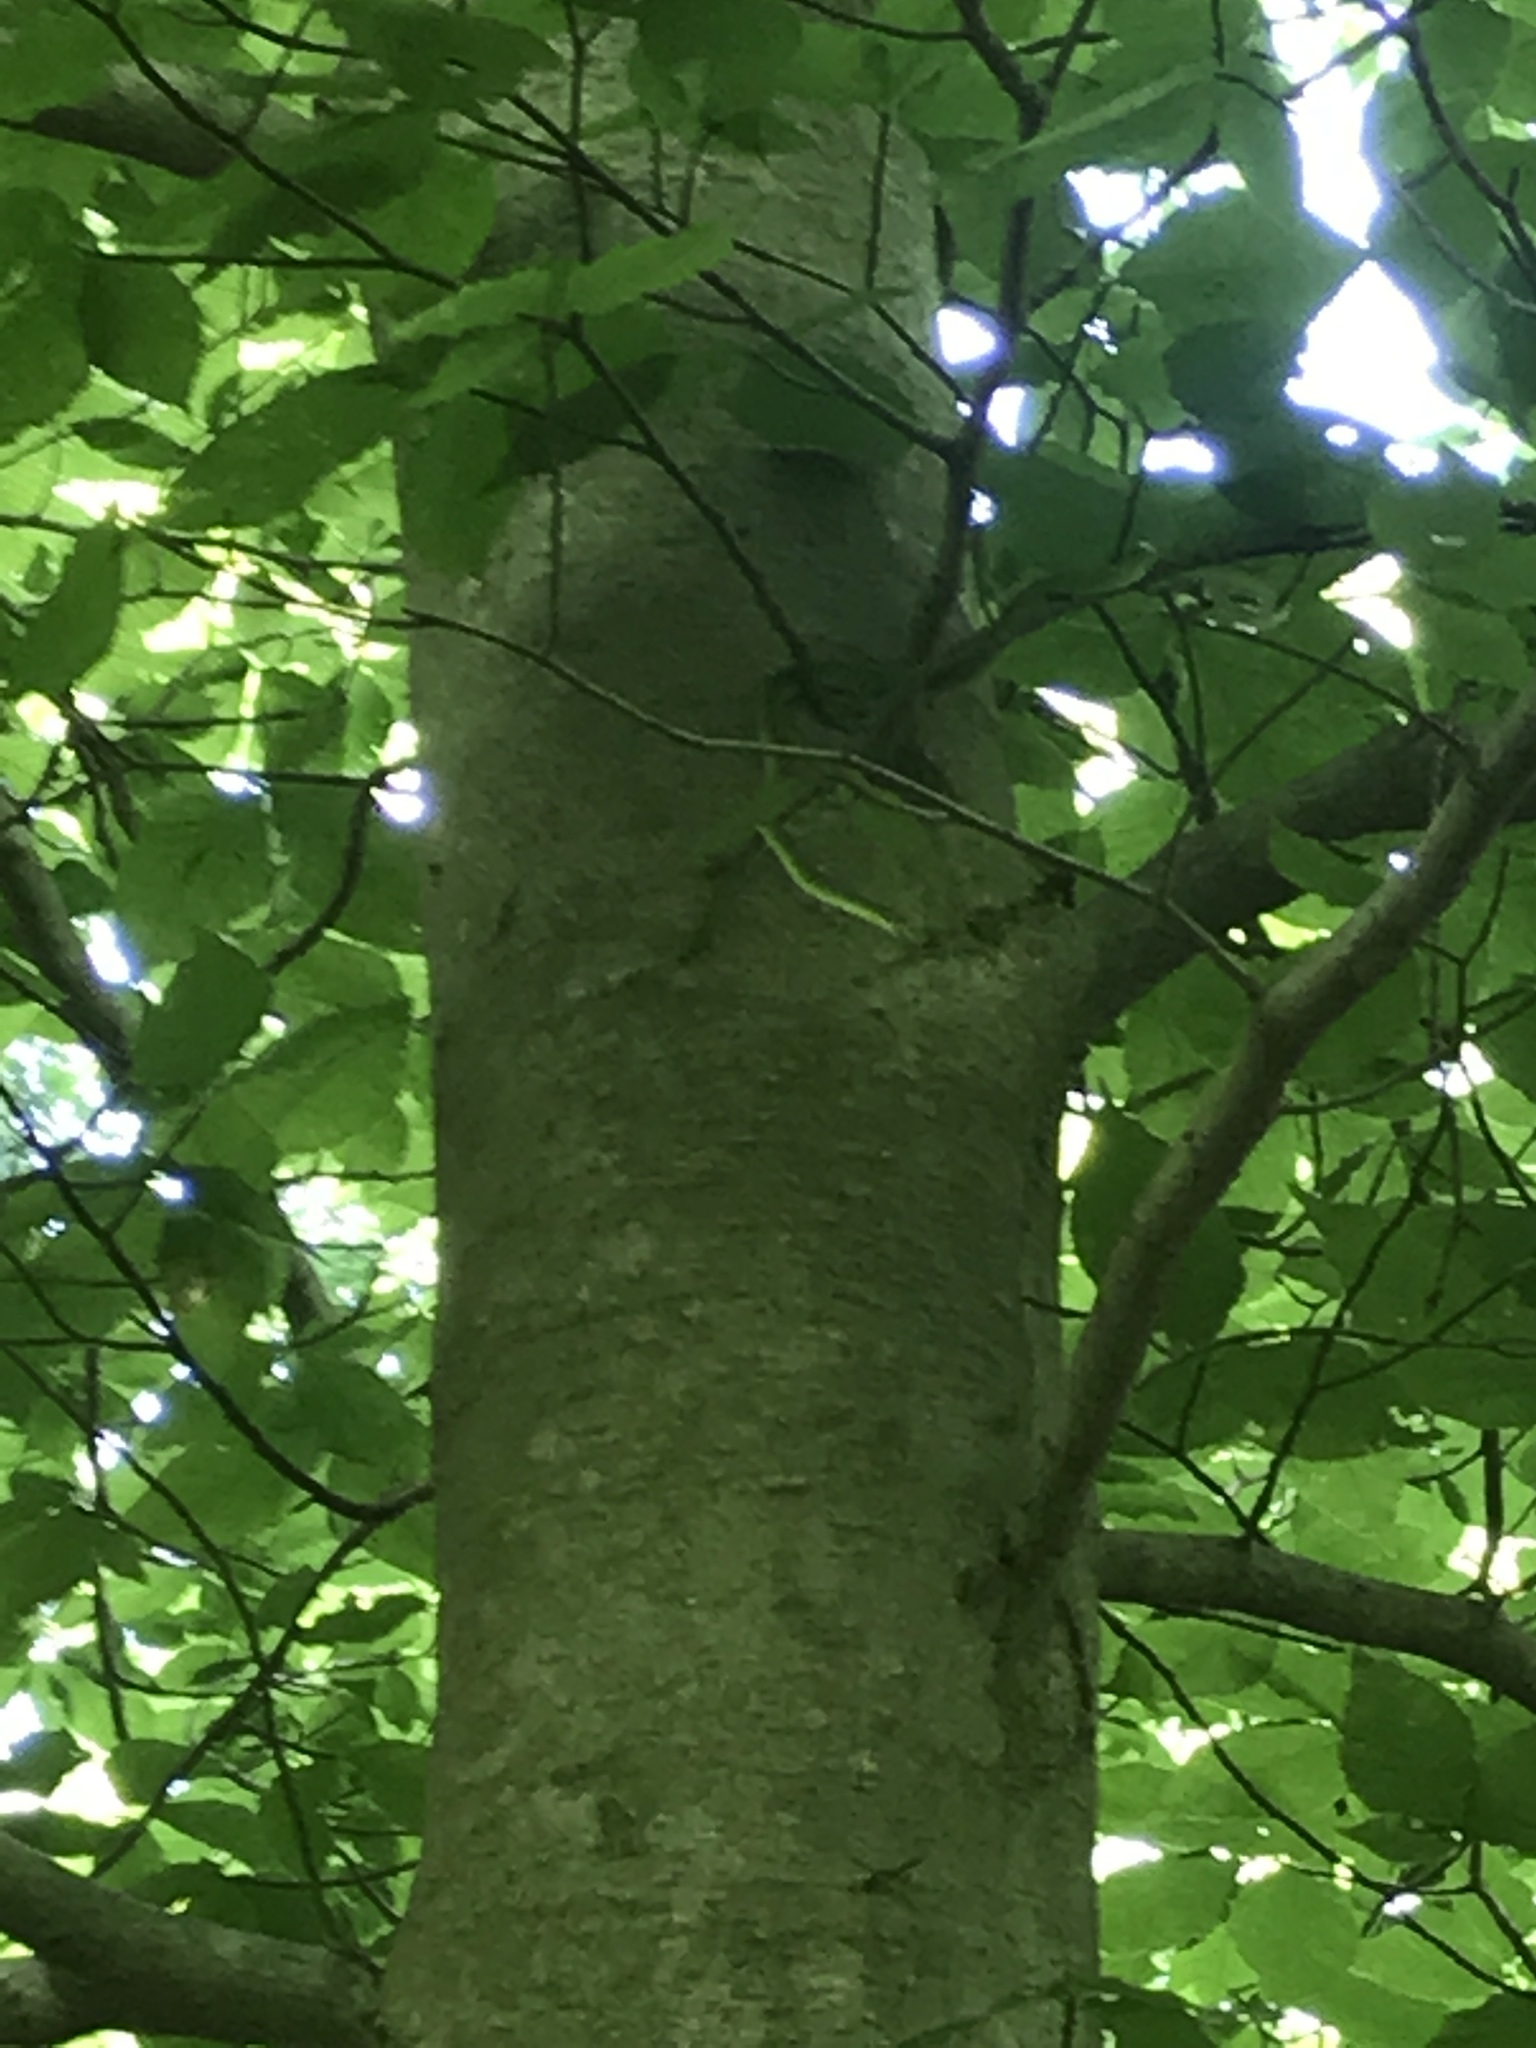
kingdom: Animalia
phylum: Chordata
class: Squamata
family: Colubridae
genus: Opheodrys
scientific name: Opheodrys aestivus
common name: Rough greensnake
